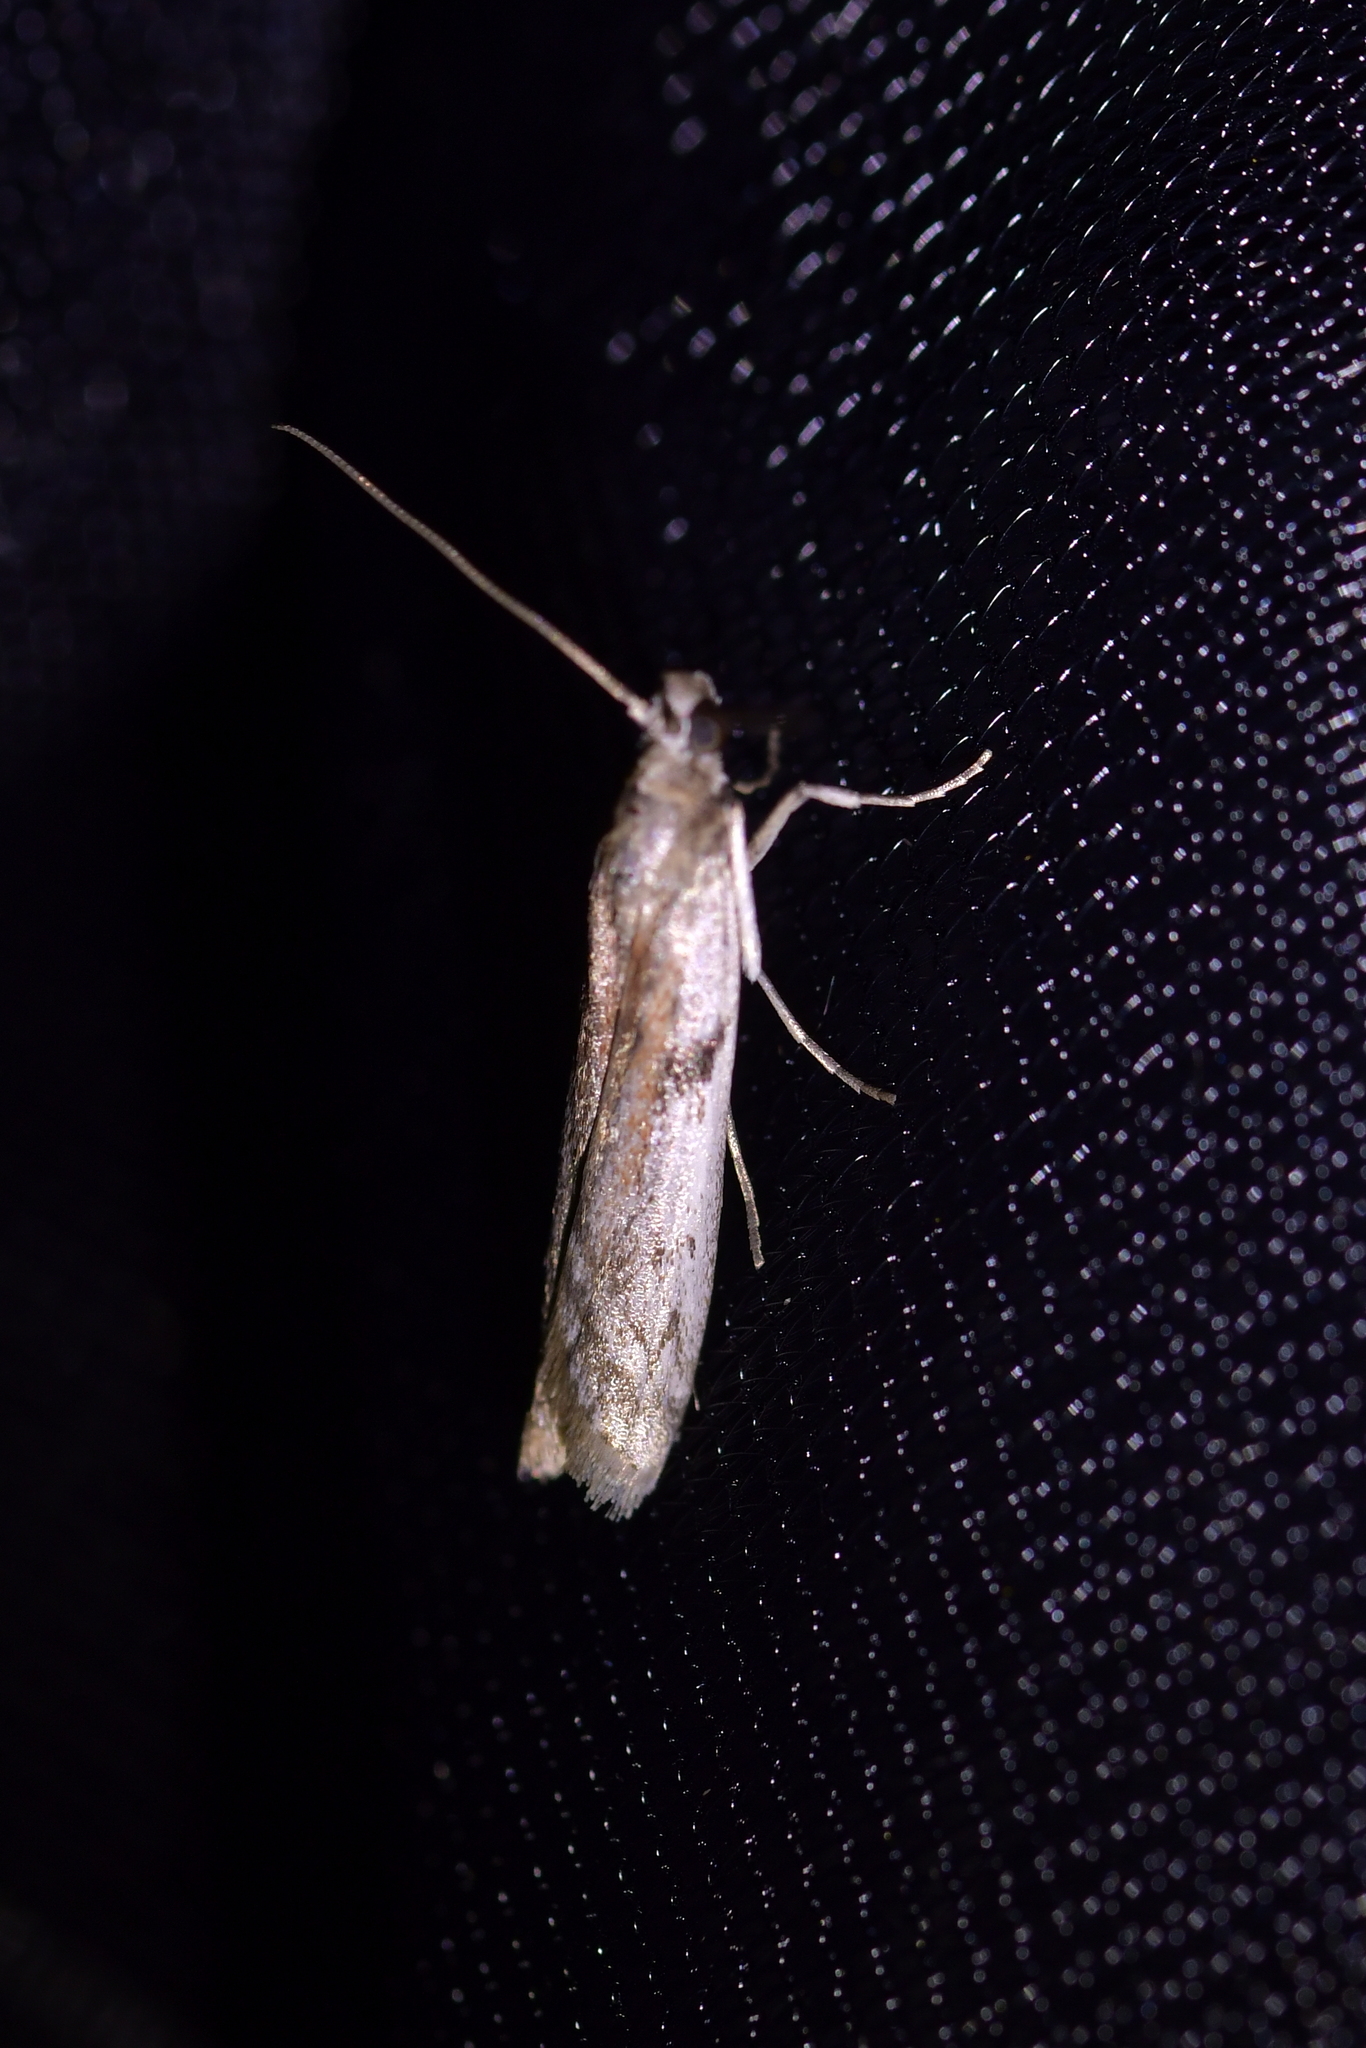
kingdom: Animalia
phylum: Arthropoda
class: Insecta
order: Lepidoptera
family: Pyralidae
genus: Patagoniodes
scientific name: Patagoniodes farinaria
